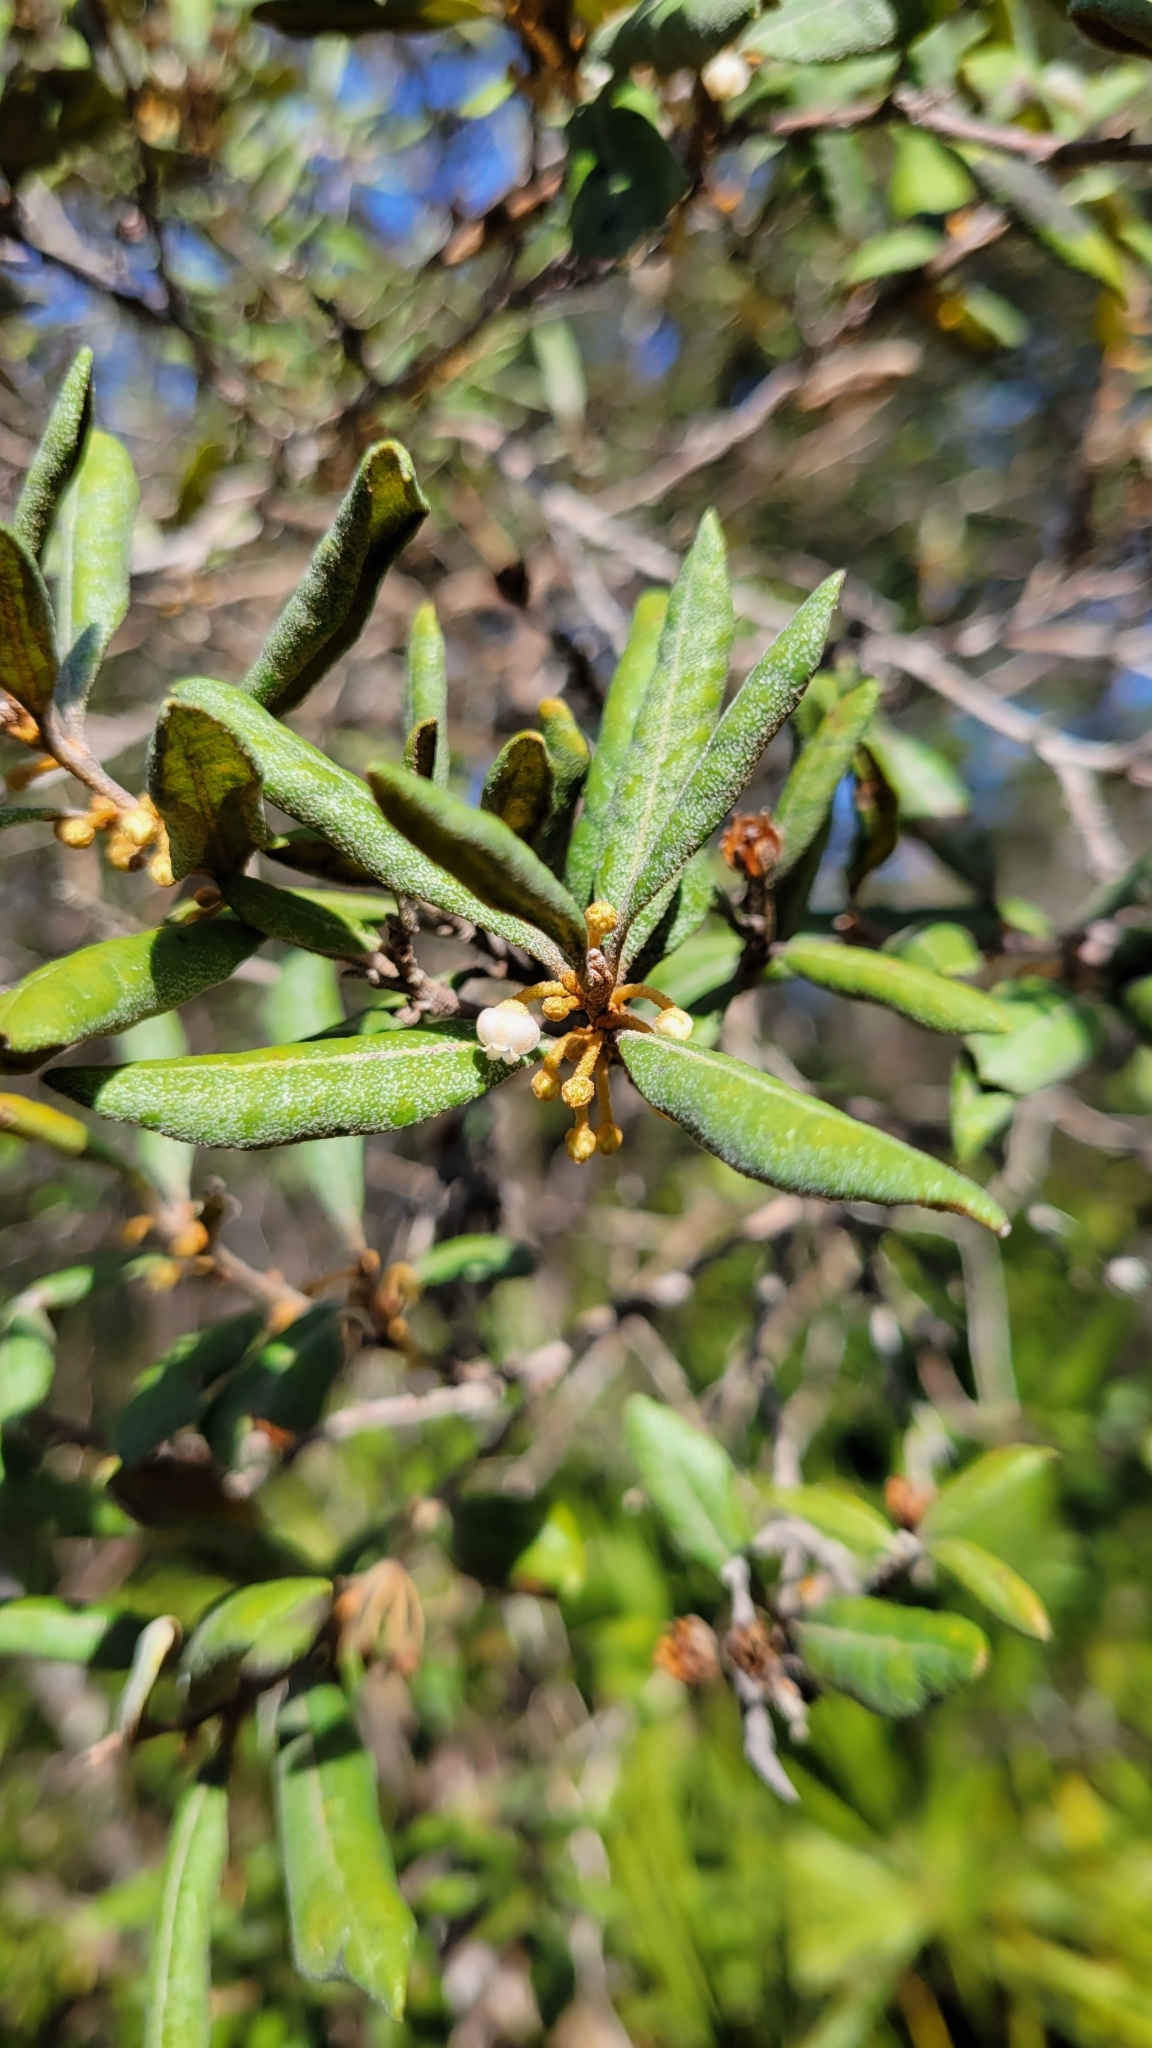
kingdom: Plantae
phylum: Tracheophyta
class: Magnoliopsida
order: Ericales
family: Ericaceae
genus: Lyonia
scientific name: Lyonia ferruginea
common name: Rusty lyonia
